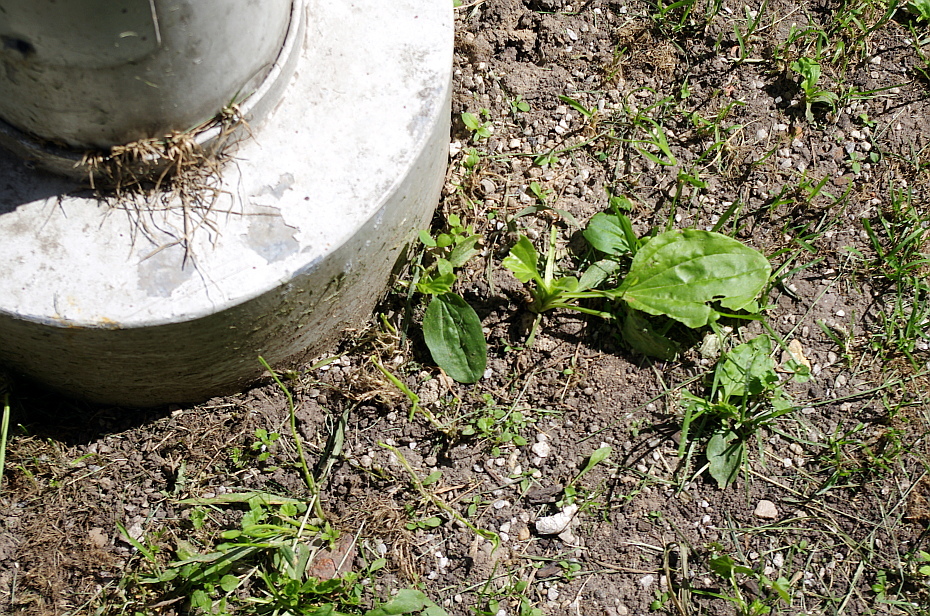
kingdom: Plantae
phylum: Tracheophyta
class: Magnoliopsida
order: Lamiales
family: Plantaginaceae
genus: Plantago
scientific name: Plantago major
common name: Common plantain
